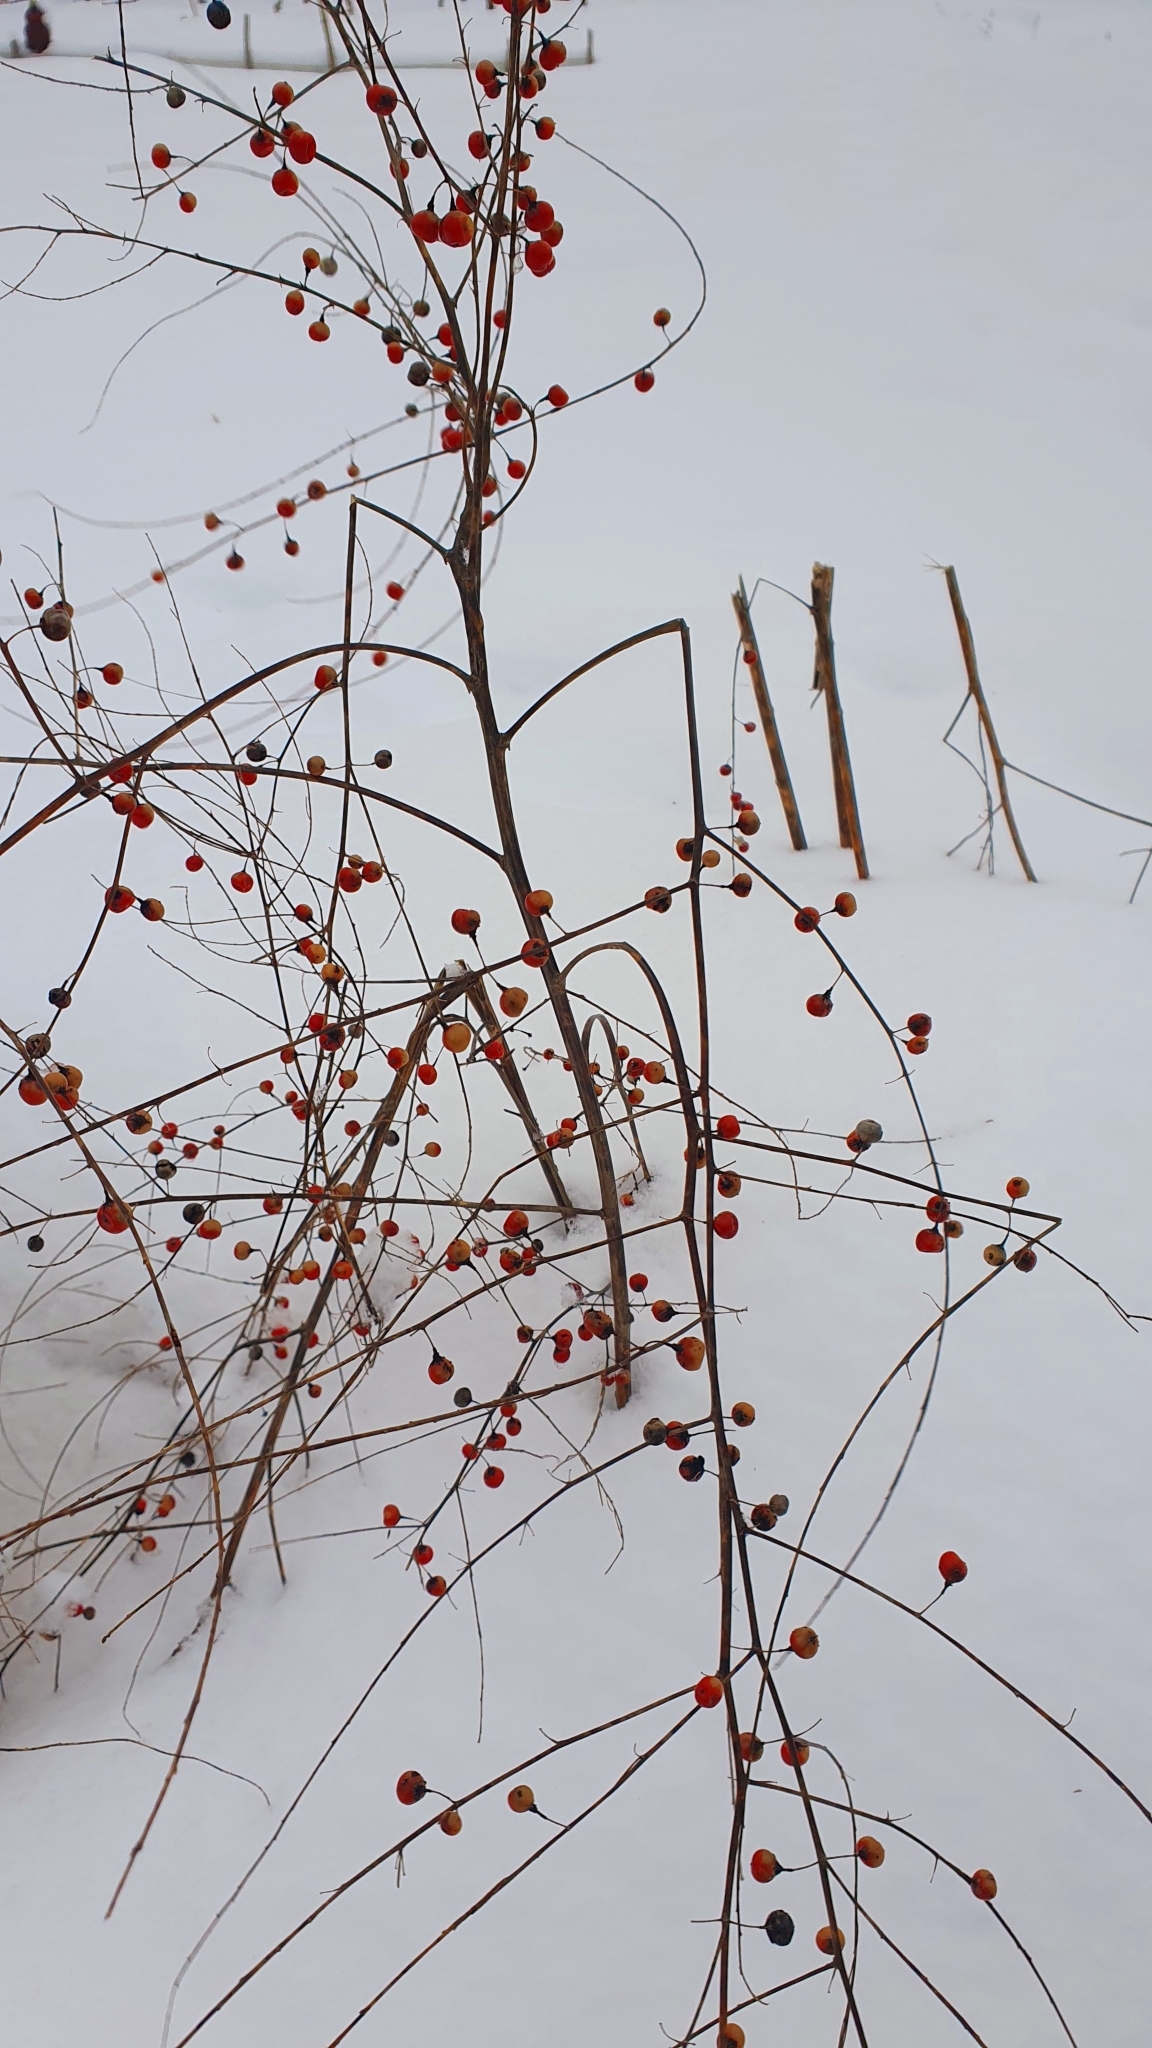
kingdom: Plantae
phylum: Tracheophyta
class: Liliopsida
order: Asparagales
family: Asparagaceae
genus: Asparagus
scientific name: Asparagus officinalis
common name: Garden asparagus
